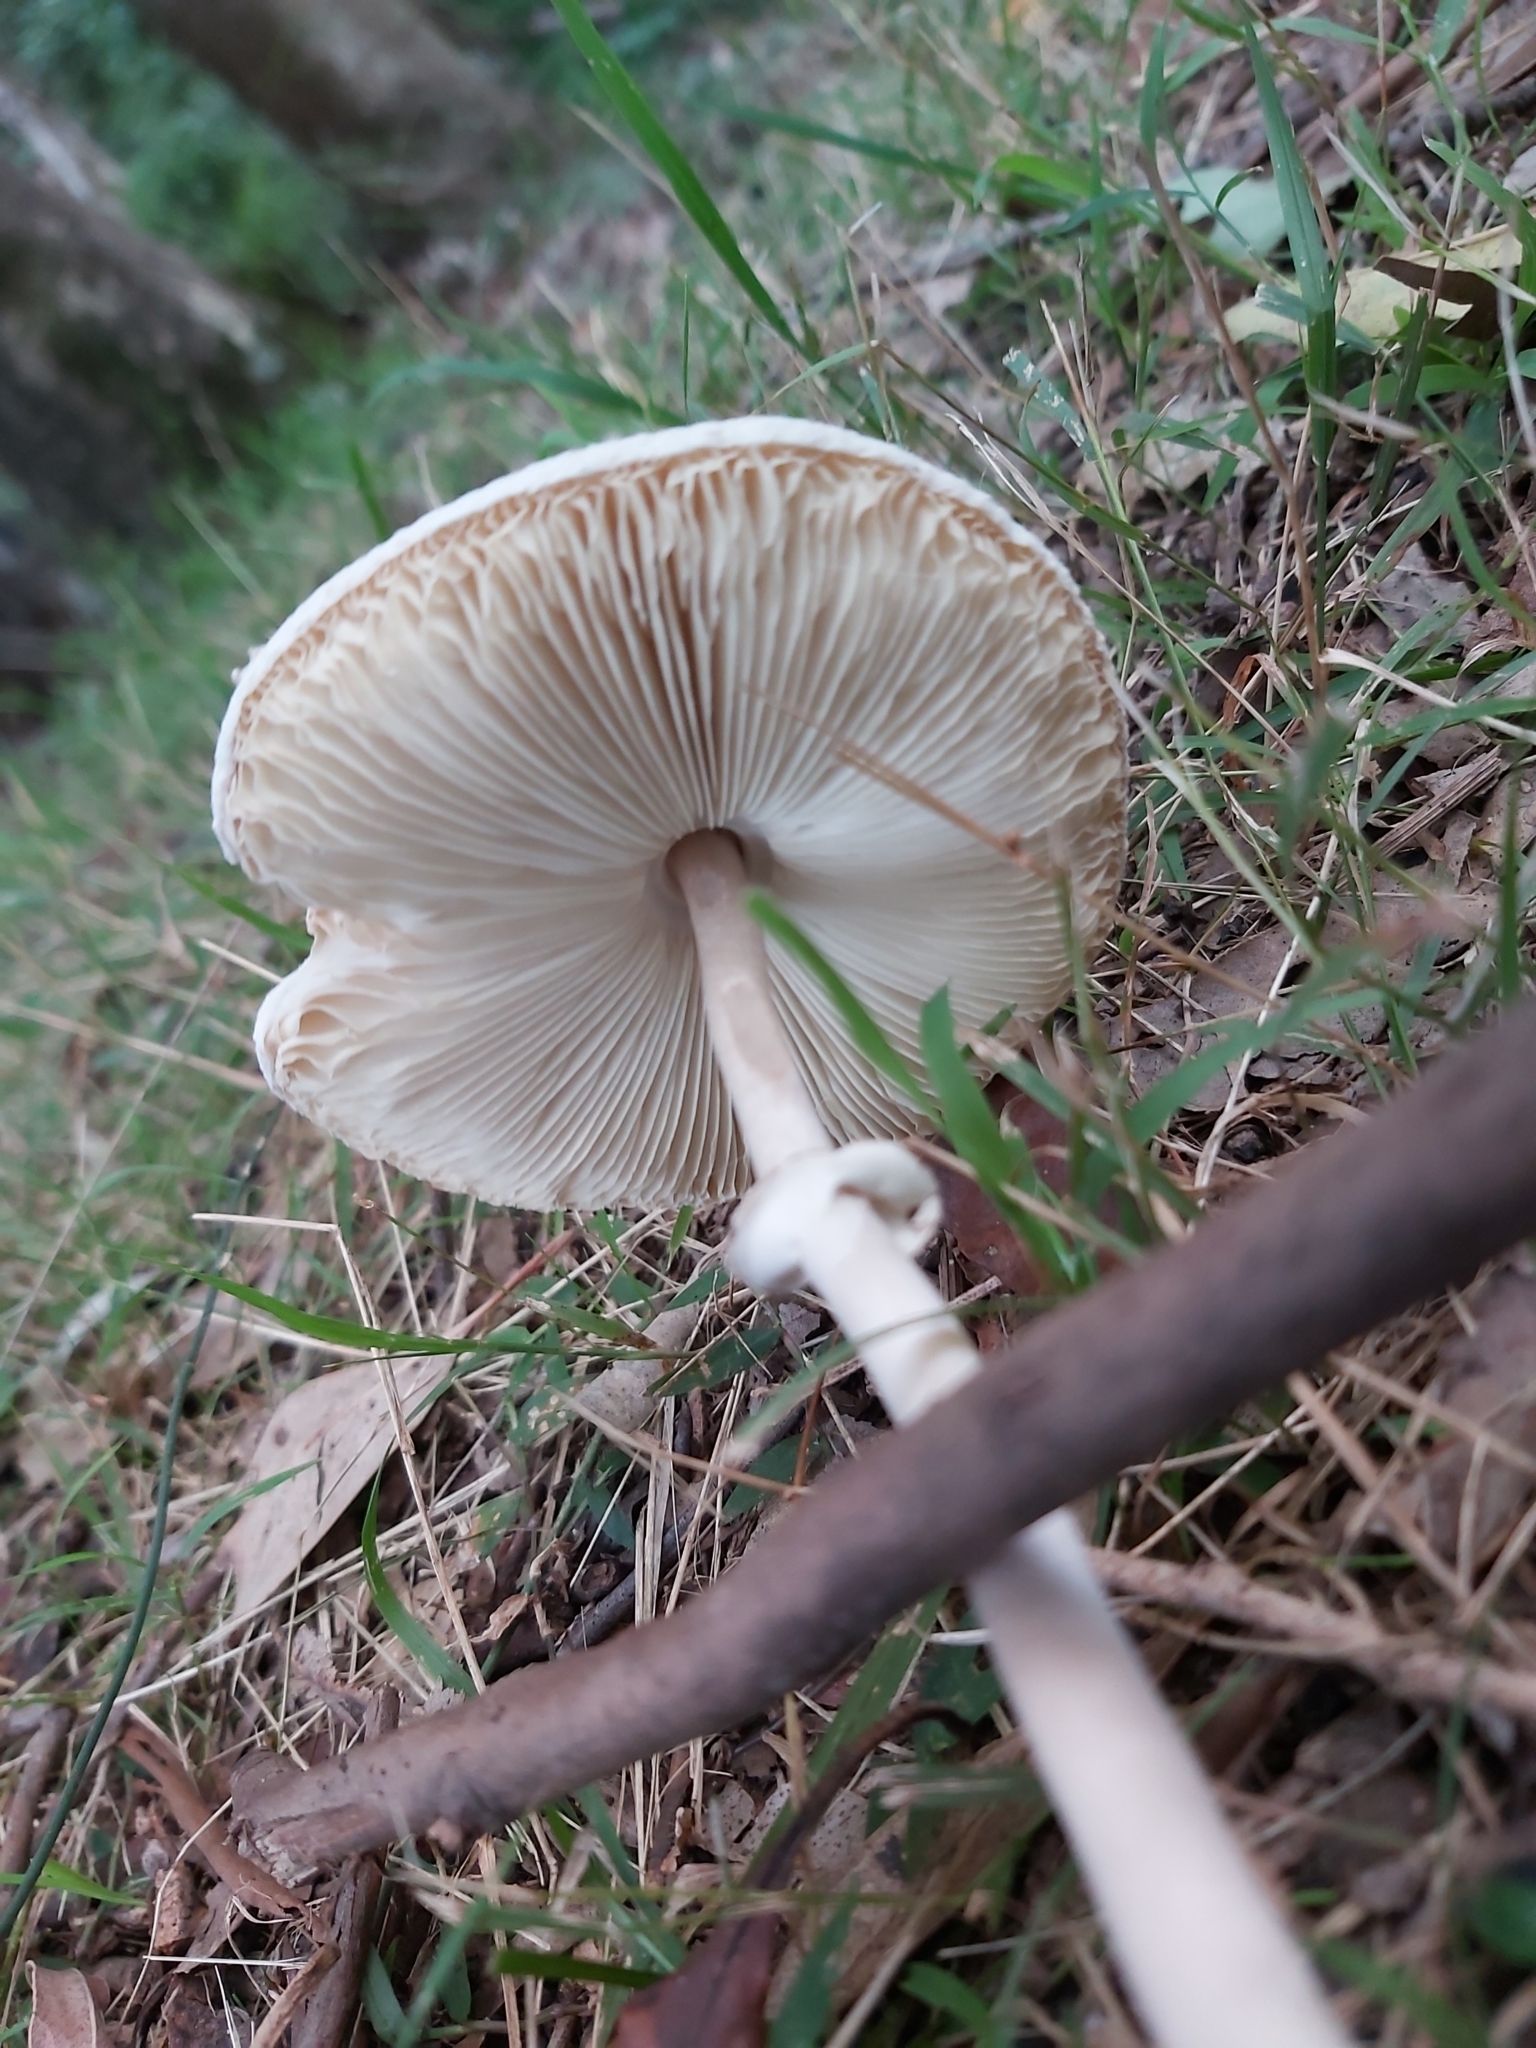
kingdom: Fungi
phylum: Basidiomycota
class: Agaricomycetes
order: Agaricales
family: Agaricaceae
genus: Macrolepiota
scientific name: Macrolepiota clelandii
